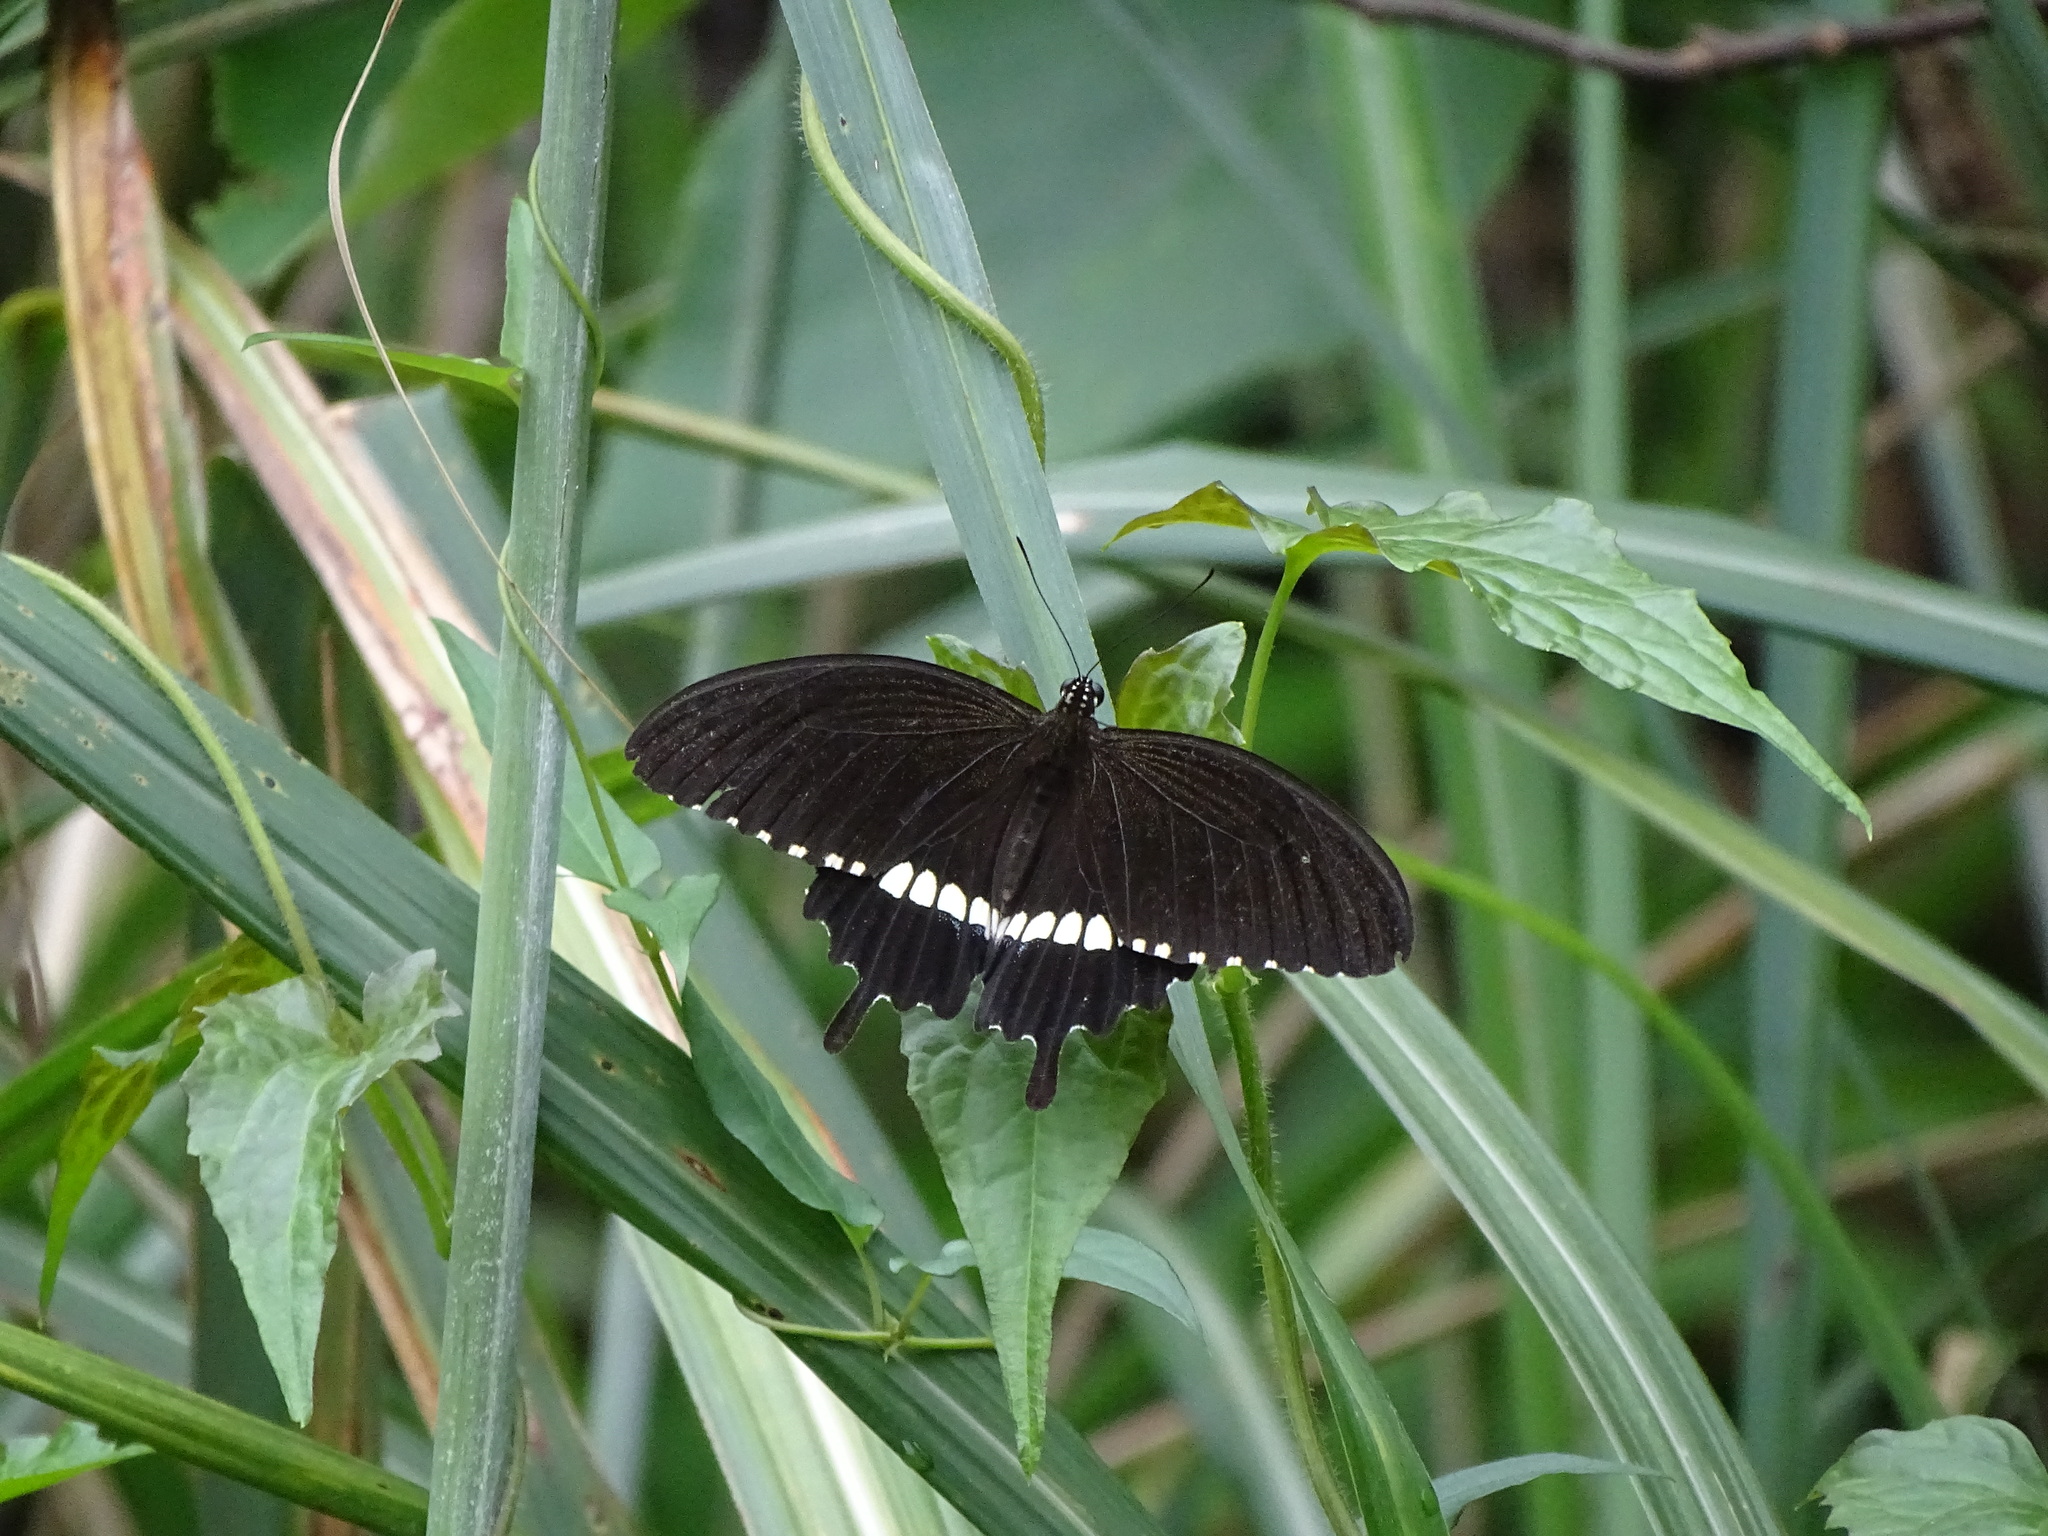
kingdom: Animalia
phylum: Arthropoda
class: Insecta
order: Lepidoptera
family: Papilionidae
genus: Papilio
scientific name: Papilio polytes
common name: Common mormon
